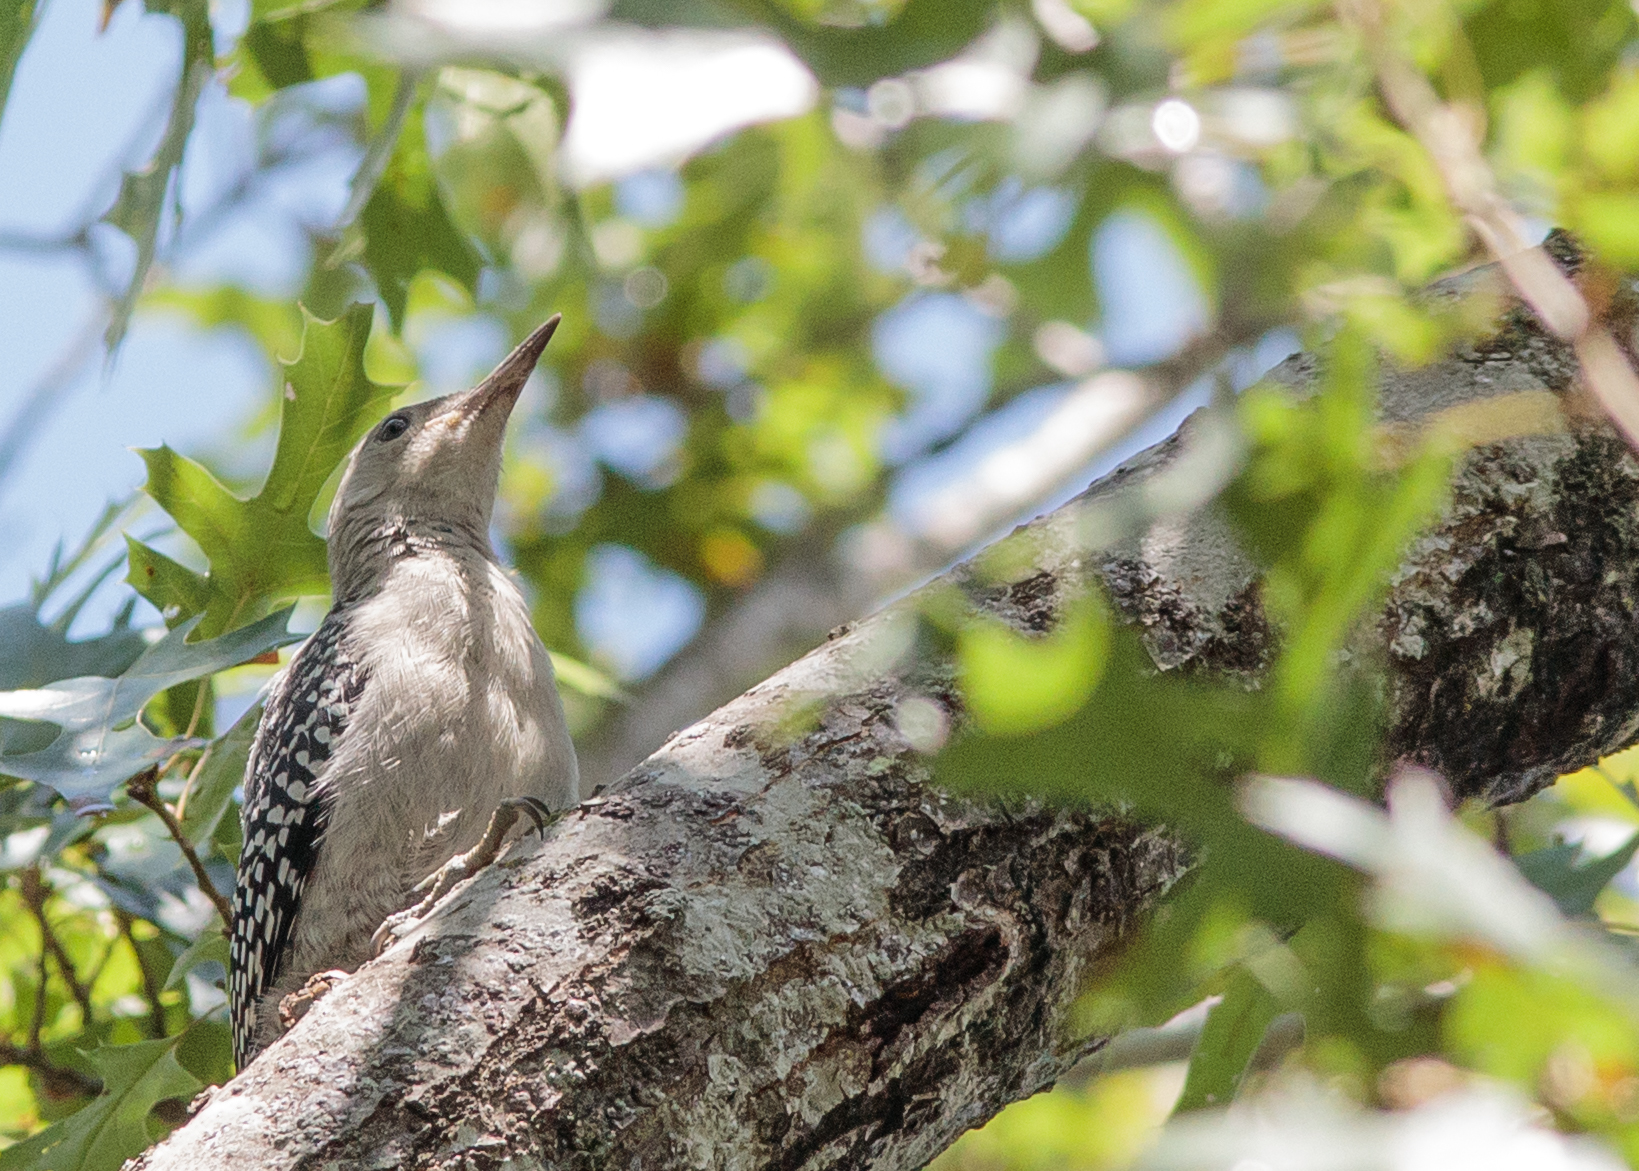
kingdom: Animalia
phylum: Chordata
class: Aves
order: Piciformes
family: Picidae
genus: Melanerpes
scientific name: Melanerpes carolinus
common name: Red-bellied woodpecker
